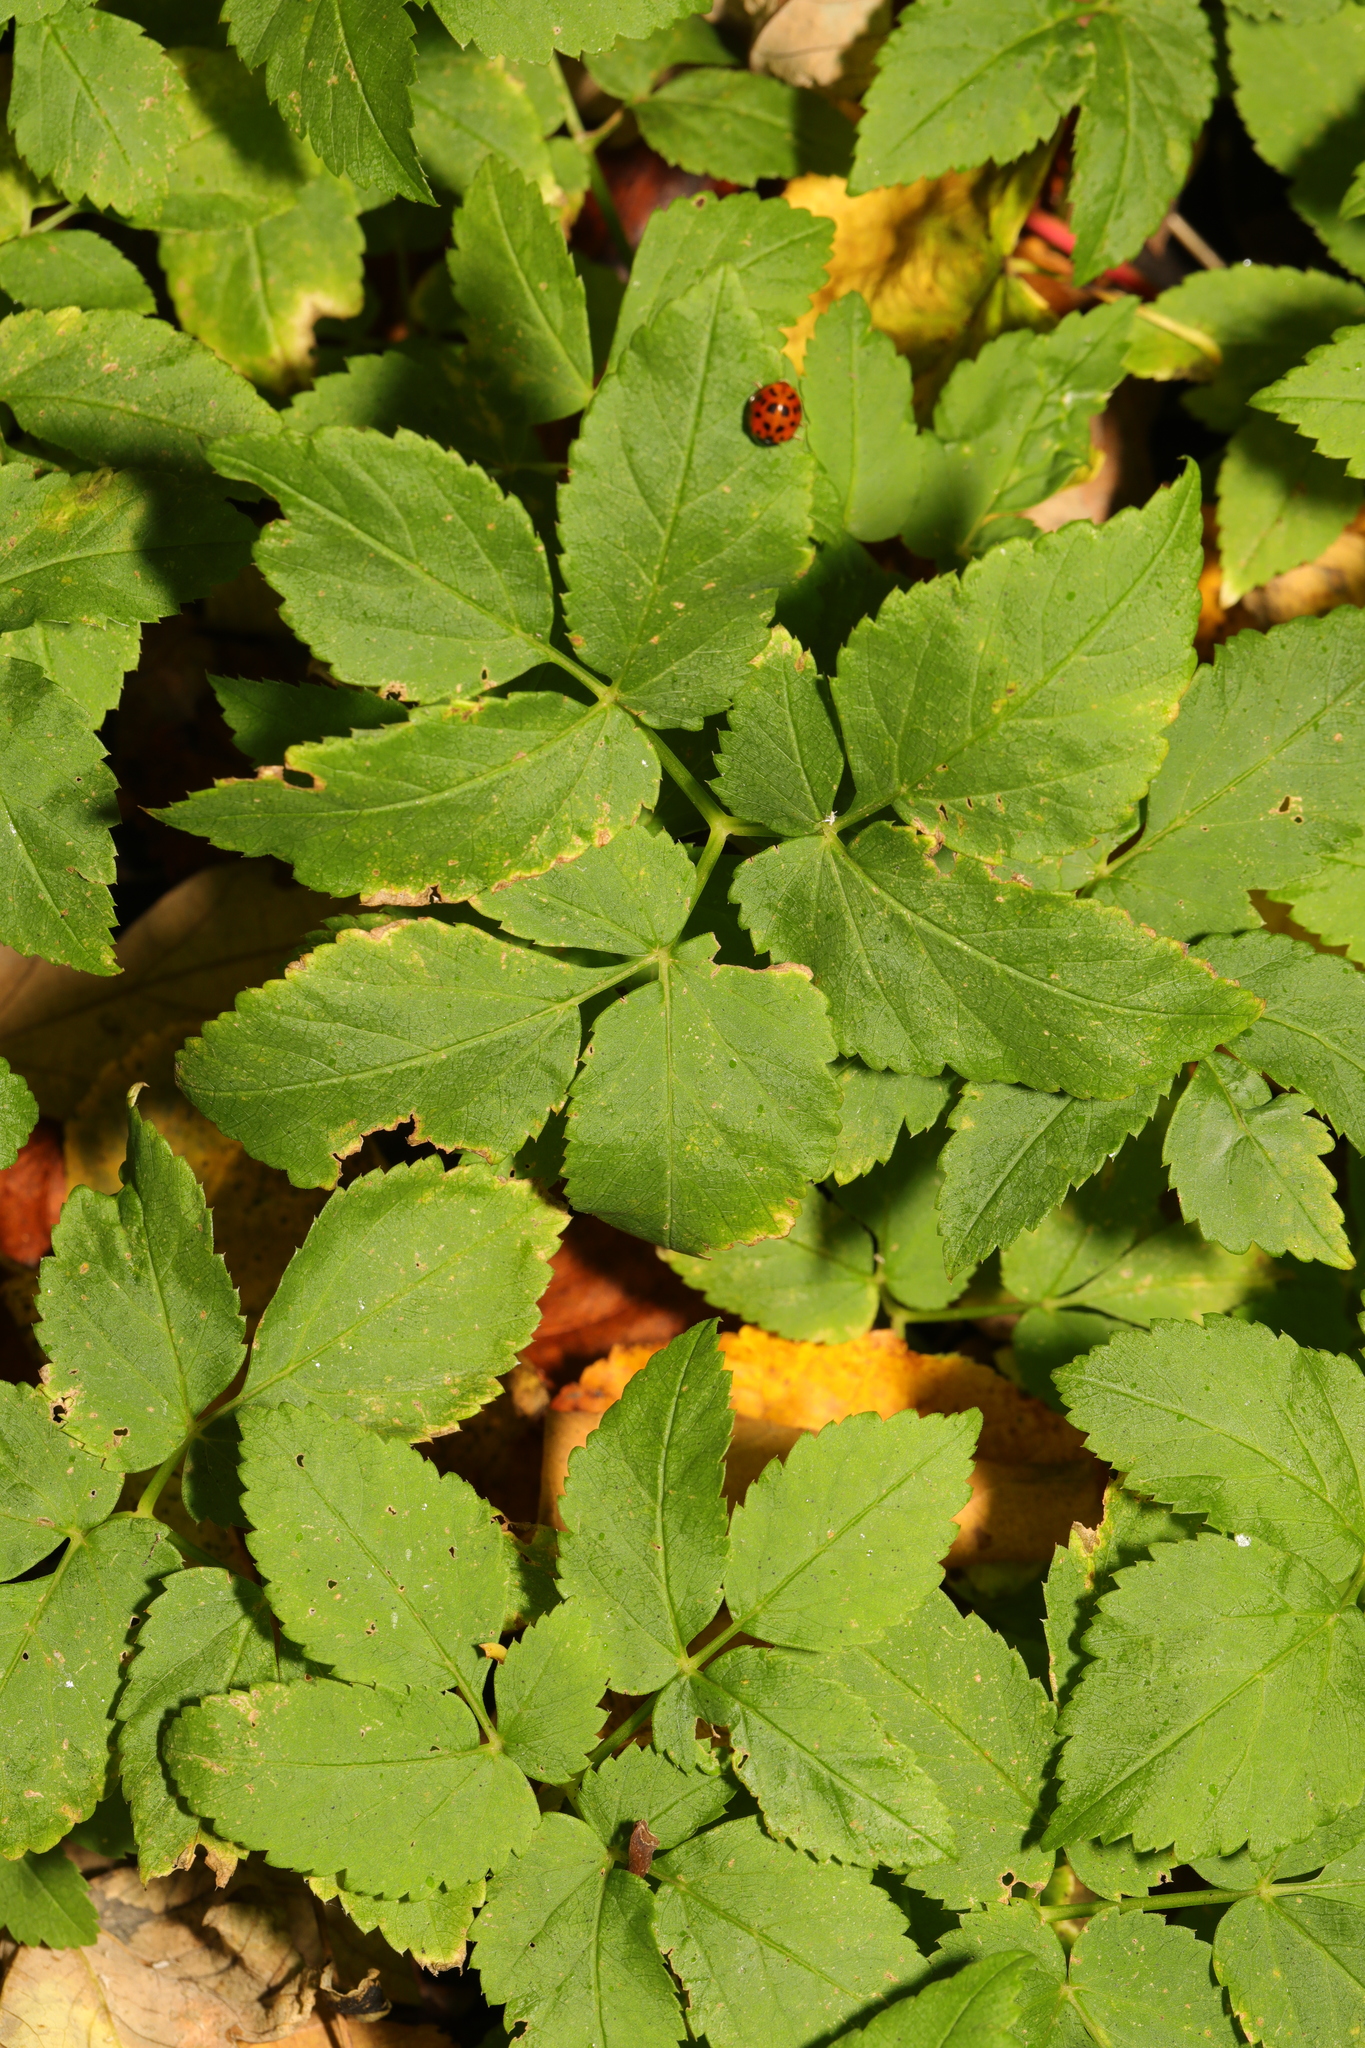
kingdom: Plantae
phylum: Tracheophyta
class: Magnoliopsida
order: Apiales
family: Apiaceae
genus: Aegopodium
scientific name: Aegopodium podagraria
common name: Ground-elder
